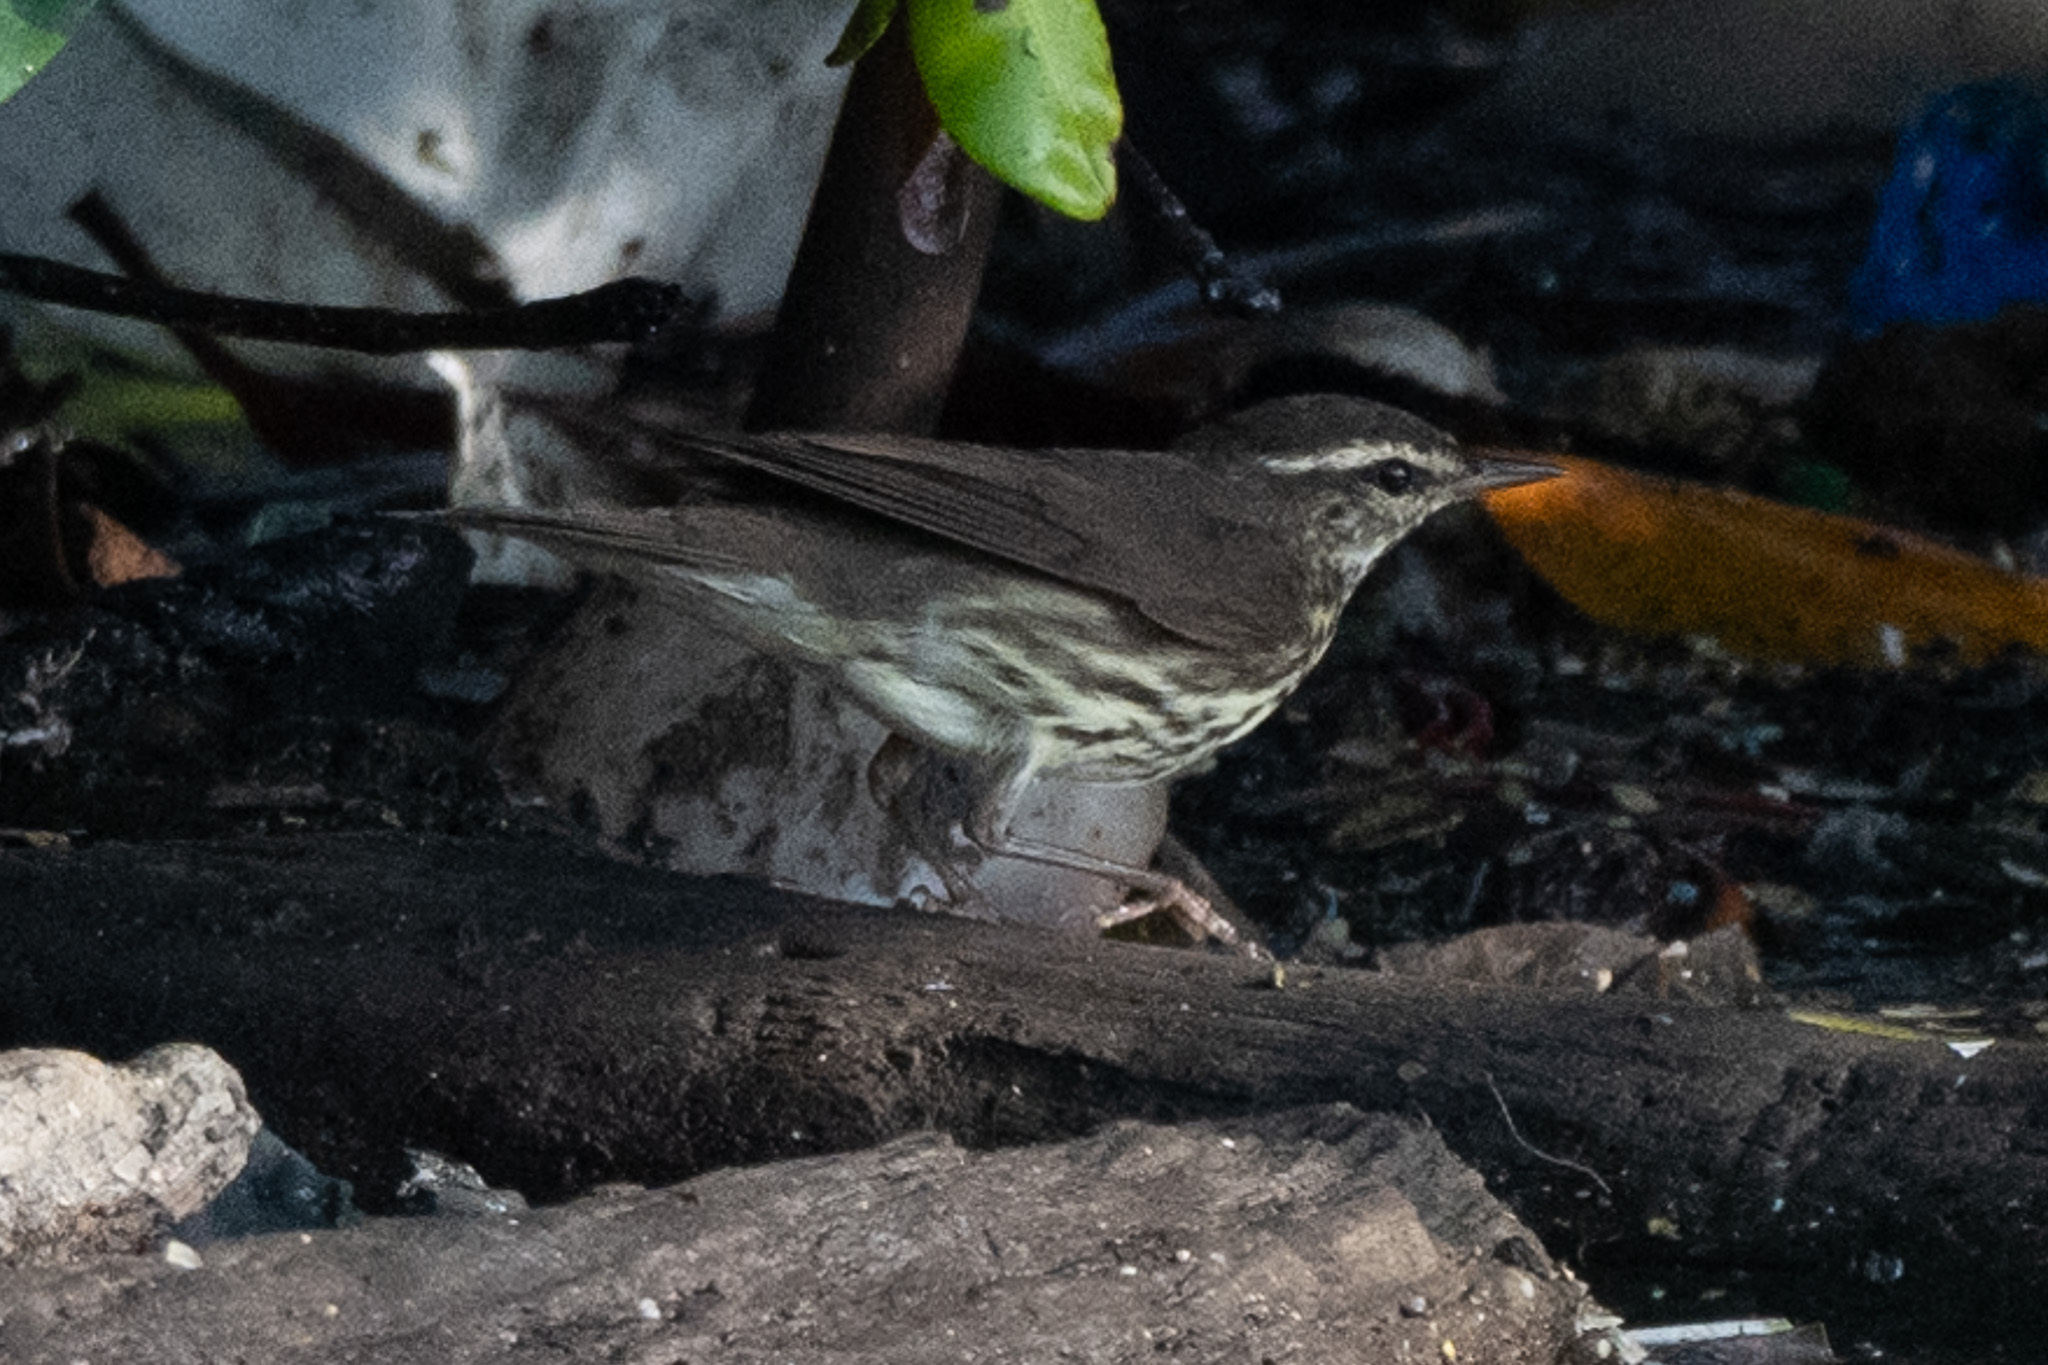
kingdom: Animalia
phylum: Chordata
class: Aves
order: Passeriformes
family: Parulidae
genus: Parkesia
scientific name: Parkesia noveboracensis
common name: Northern waterthrush
